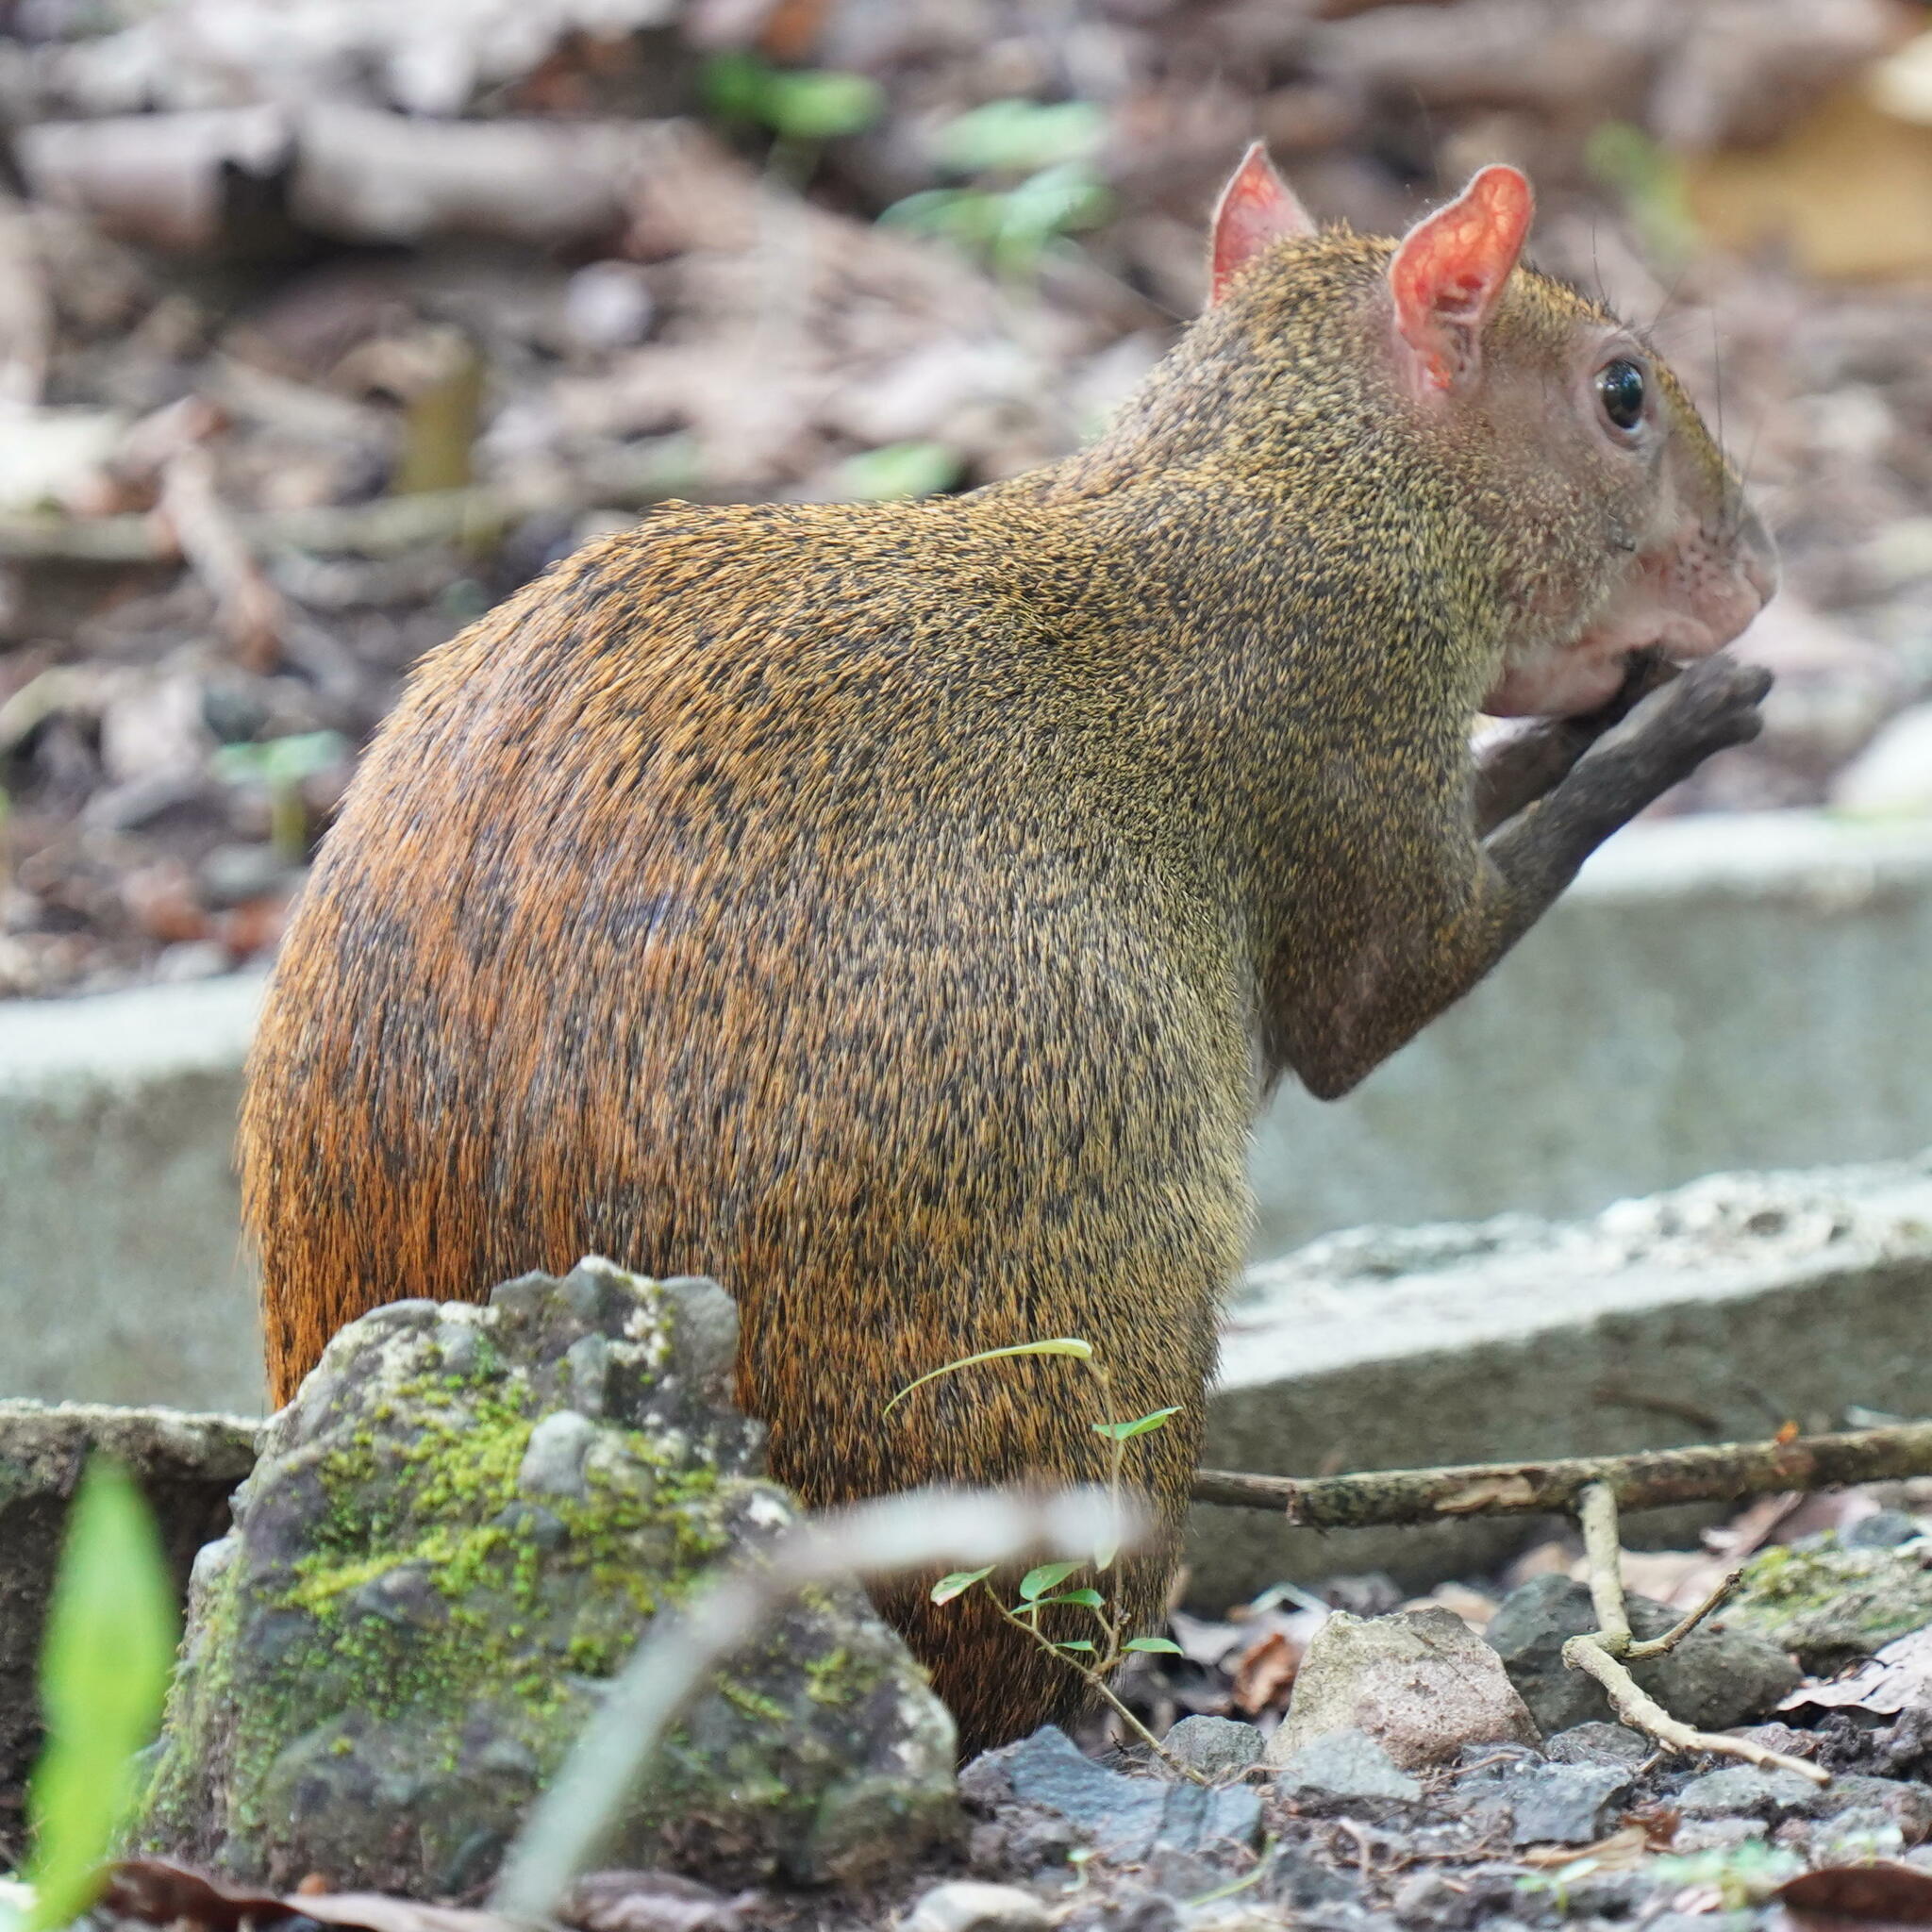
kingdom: Animalia
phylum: Chordata
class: Mammalia
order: Rodentia
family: Dasyproctidae
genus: Dasyprocta
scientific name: Dasyprocta punctata
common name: Central american agouti
